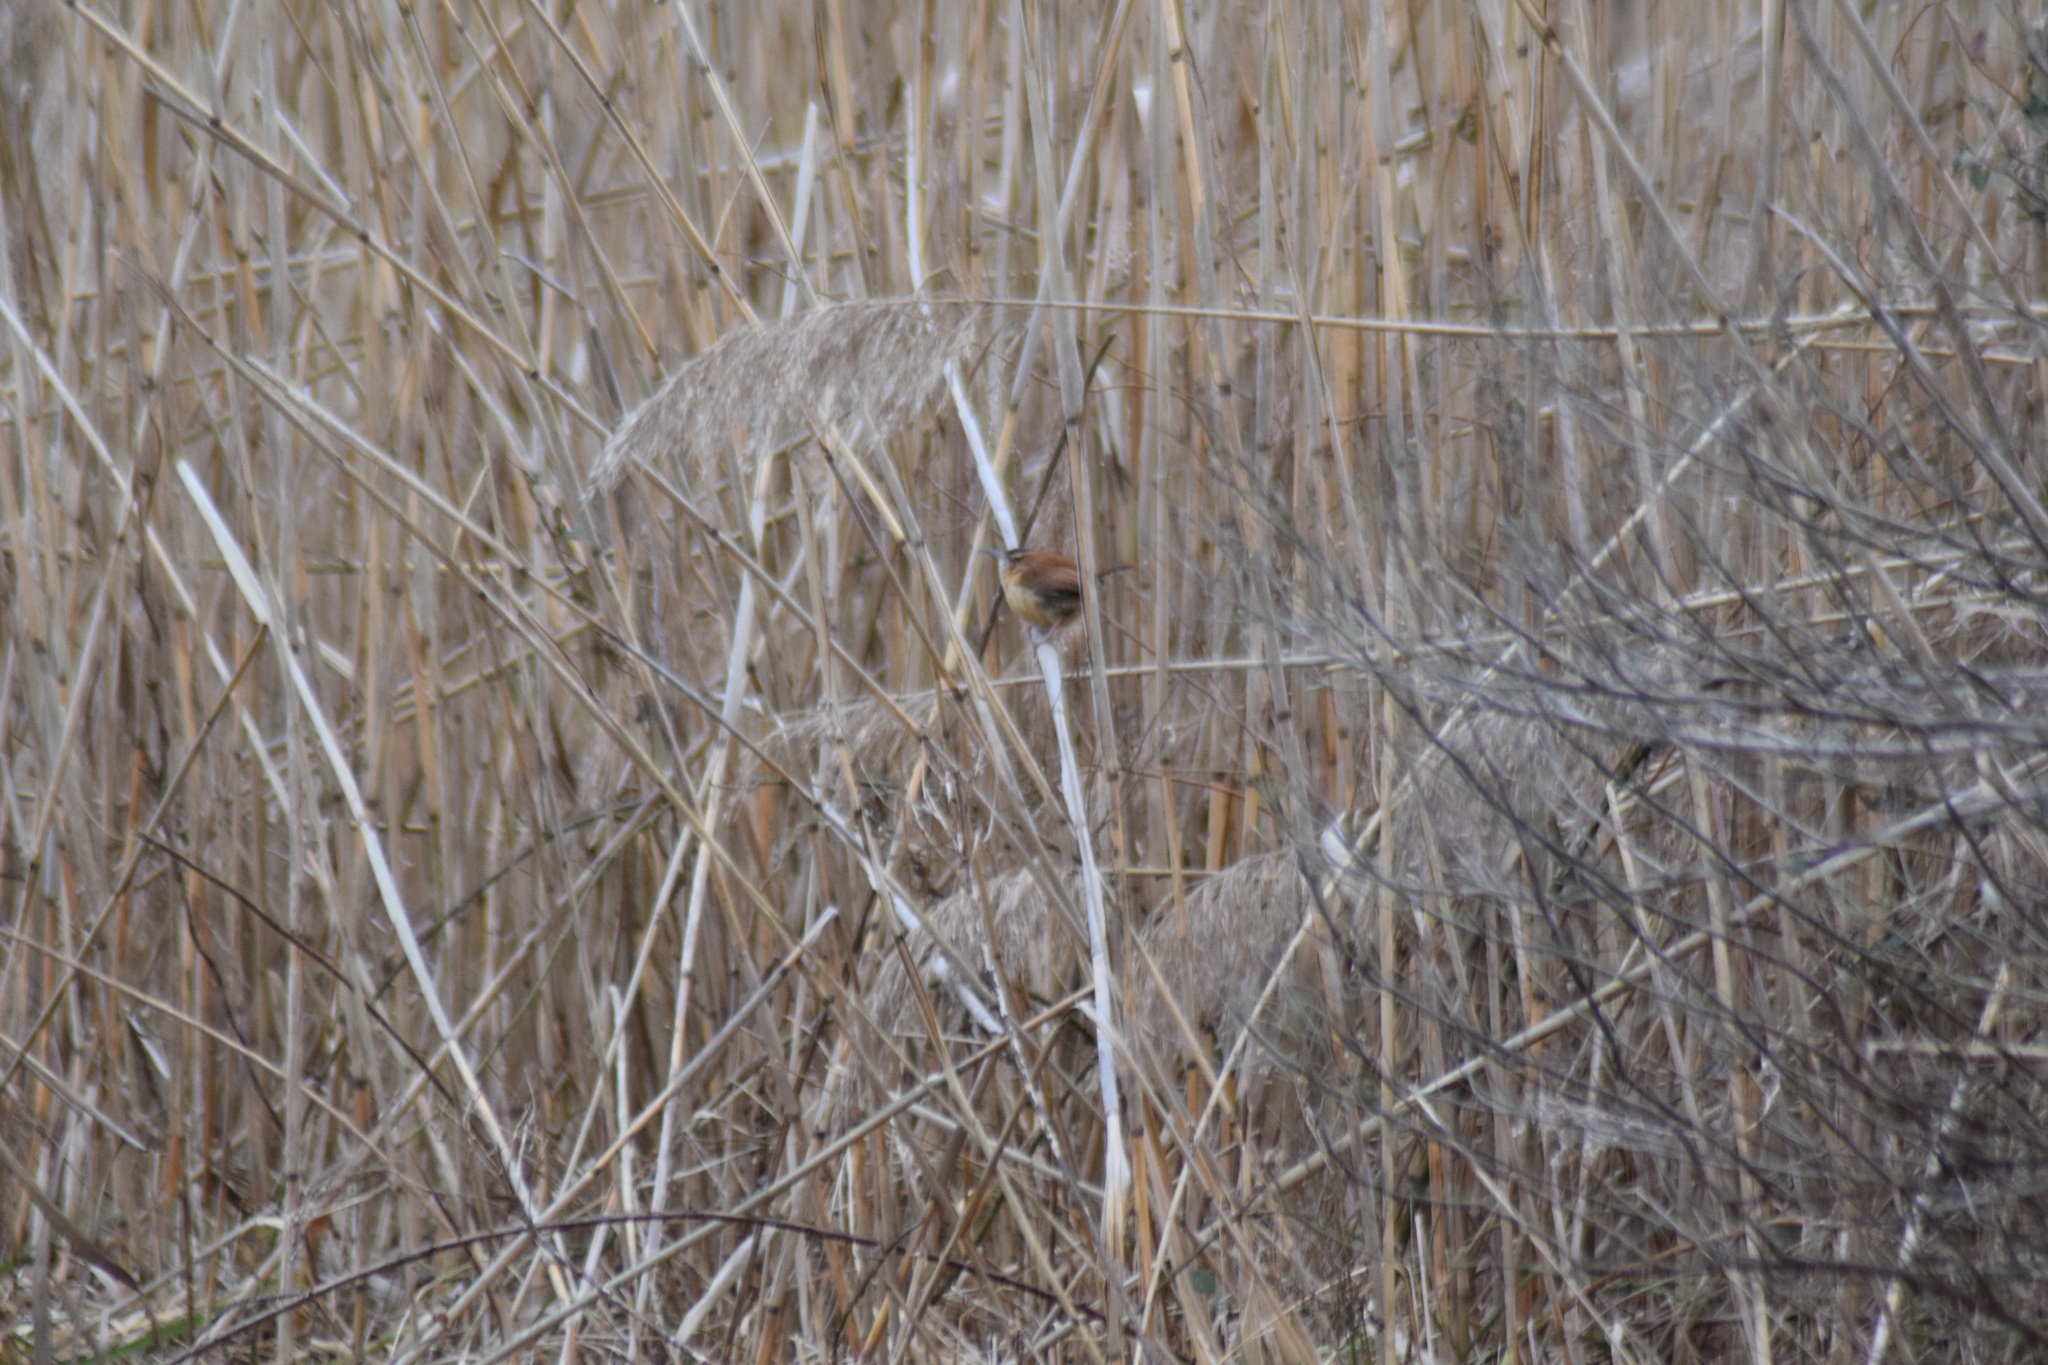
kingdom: Animalia
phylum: Chordata
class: Aves
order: Passeriformes
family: Troglodytidae
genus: Thryothorus
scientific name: Thryothorus ludovicianus
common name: Carolina wren
